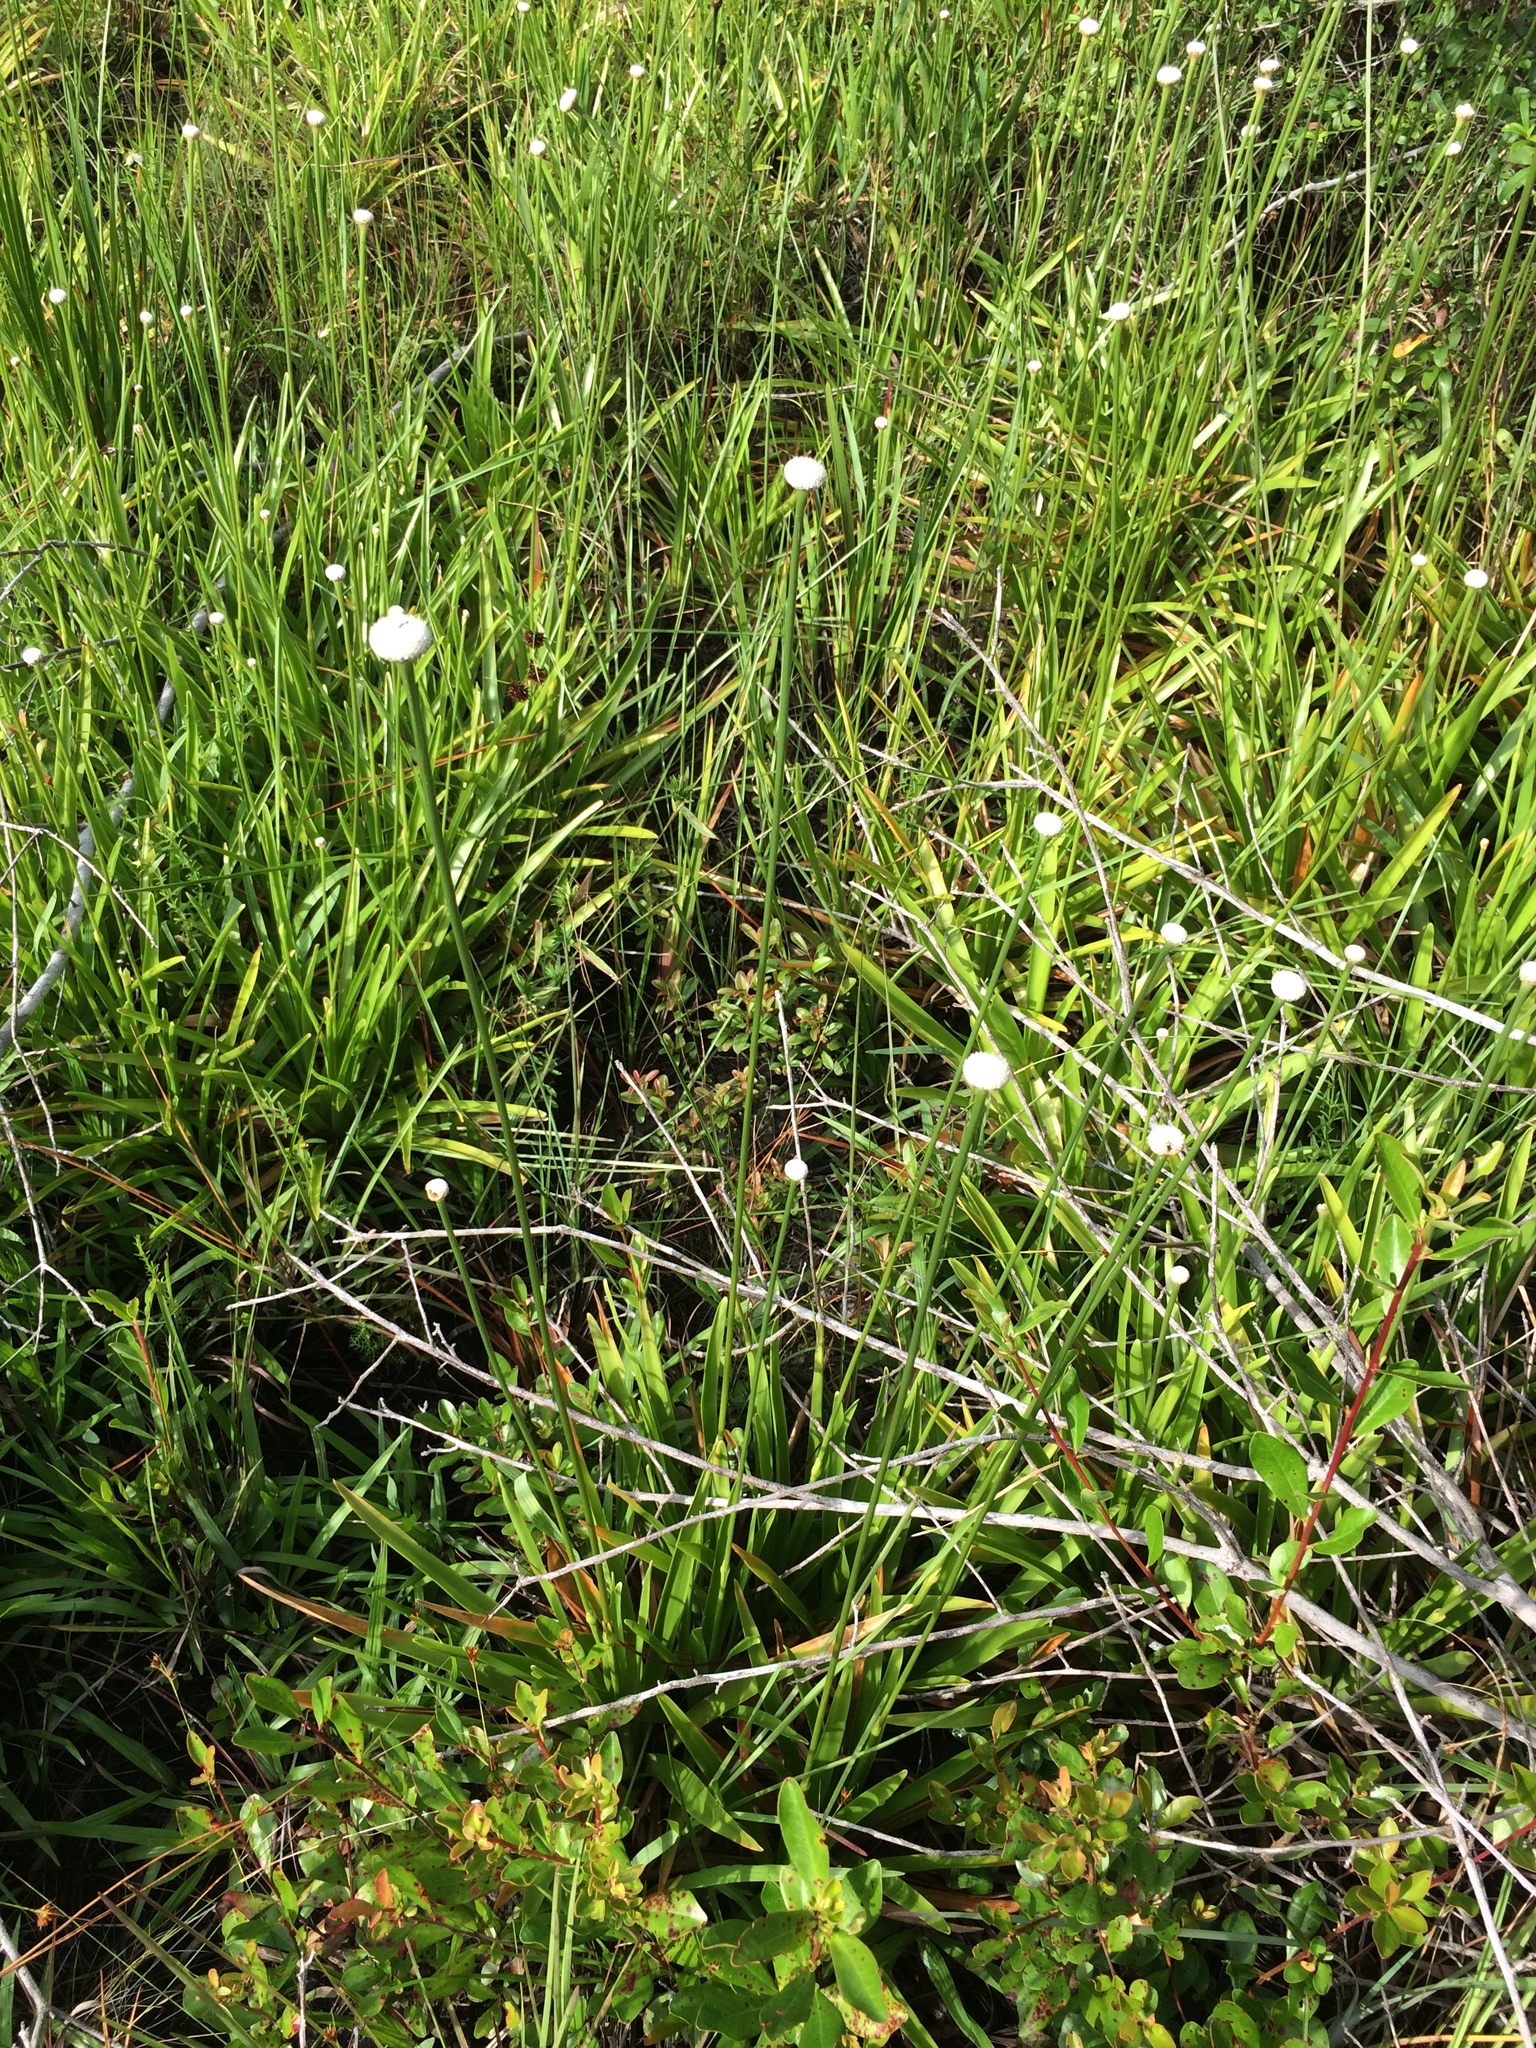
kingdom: Plantae
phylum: Tracheophyta
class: Liliopsida
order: Poales
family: Eriocaulaceae
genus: Eriocaulon
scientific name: Eriocaulon decangulare
